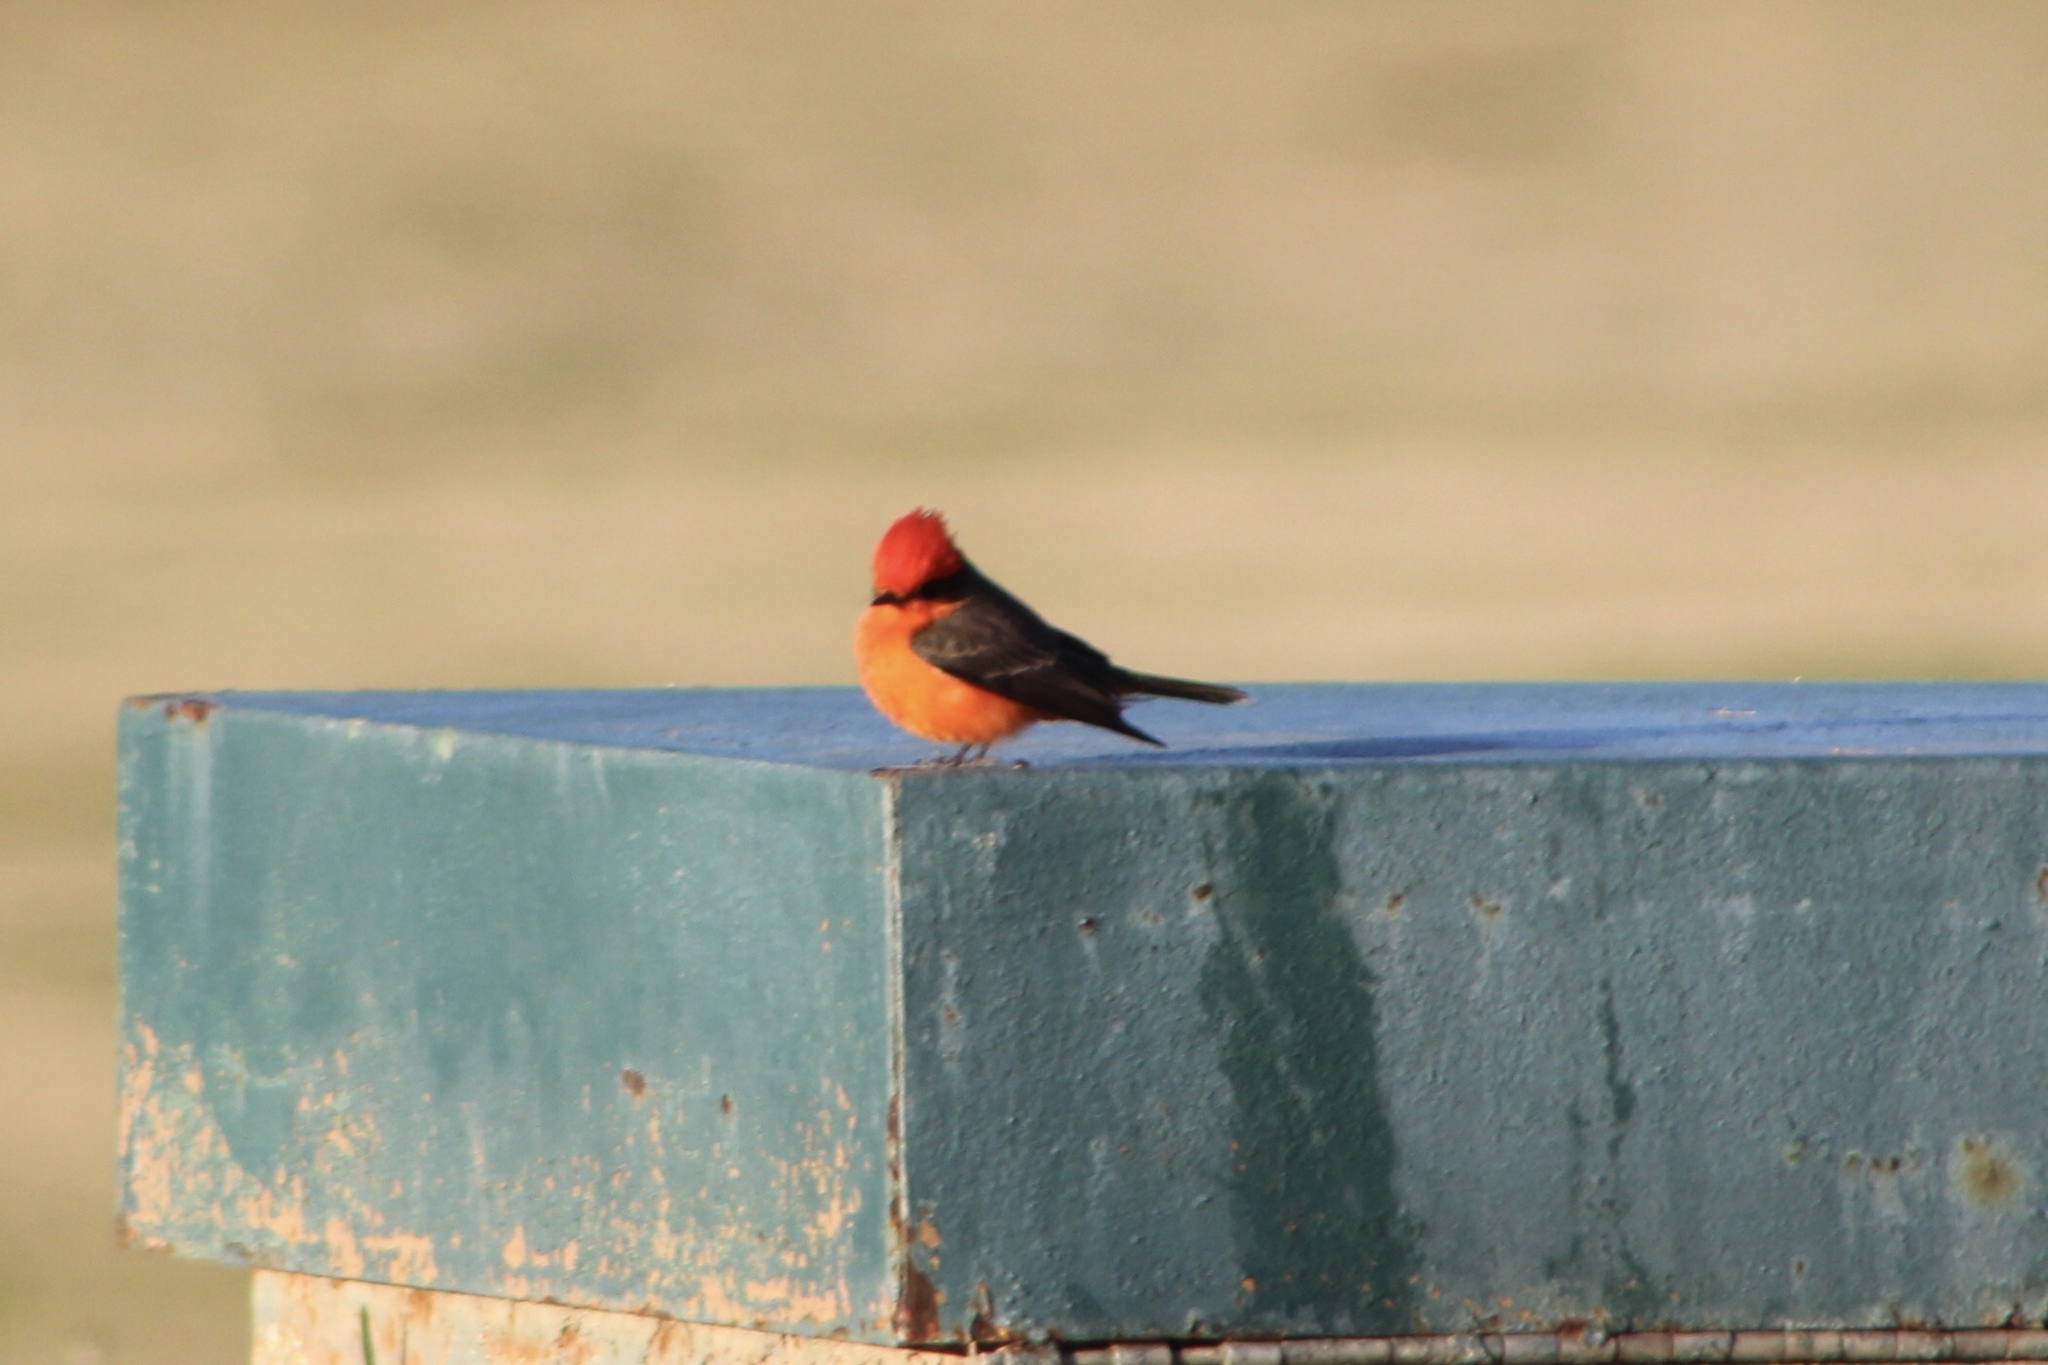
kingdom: Animalia
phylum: Chordata
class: Aves
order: Passeriformes
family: Tyrannidae
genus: Pyrocephalus
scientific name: Pyrocephalus rubinus
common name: Vermilion flycatcher
